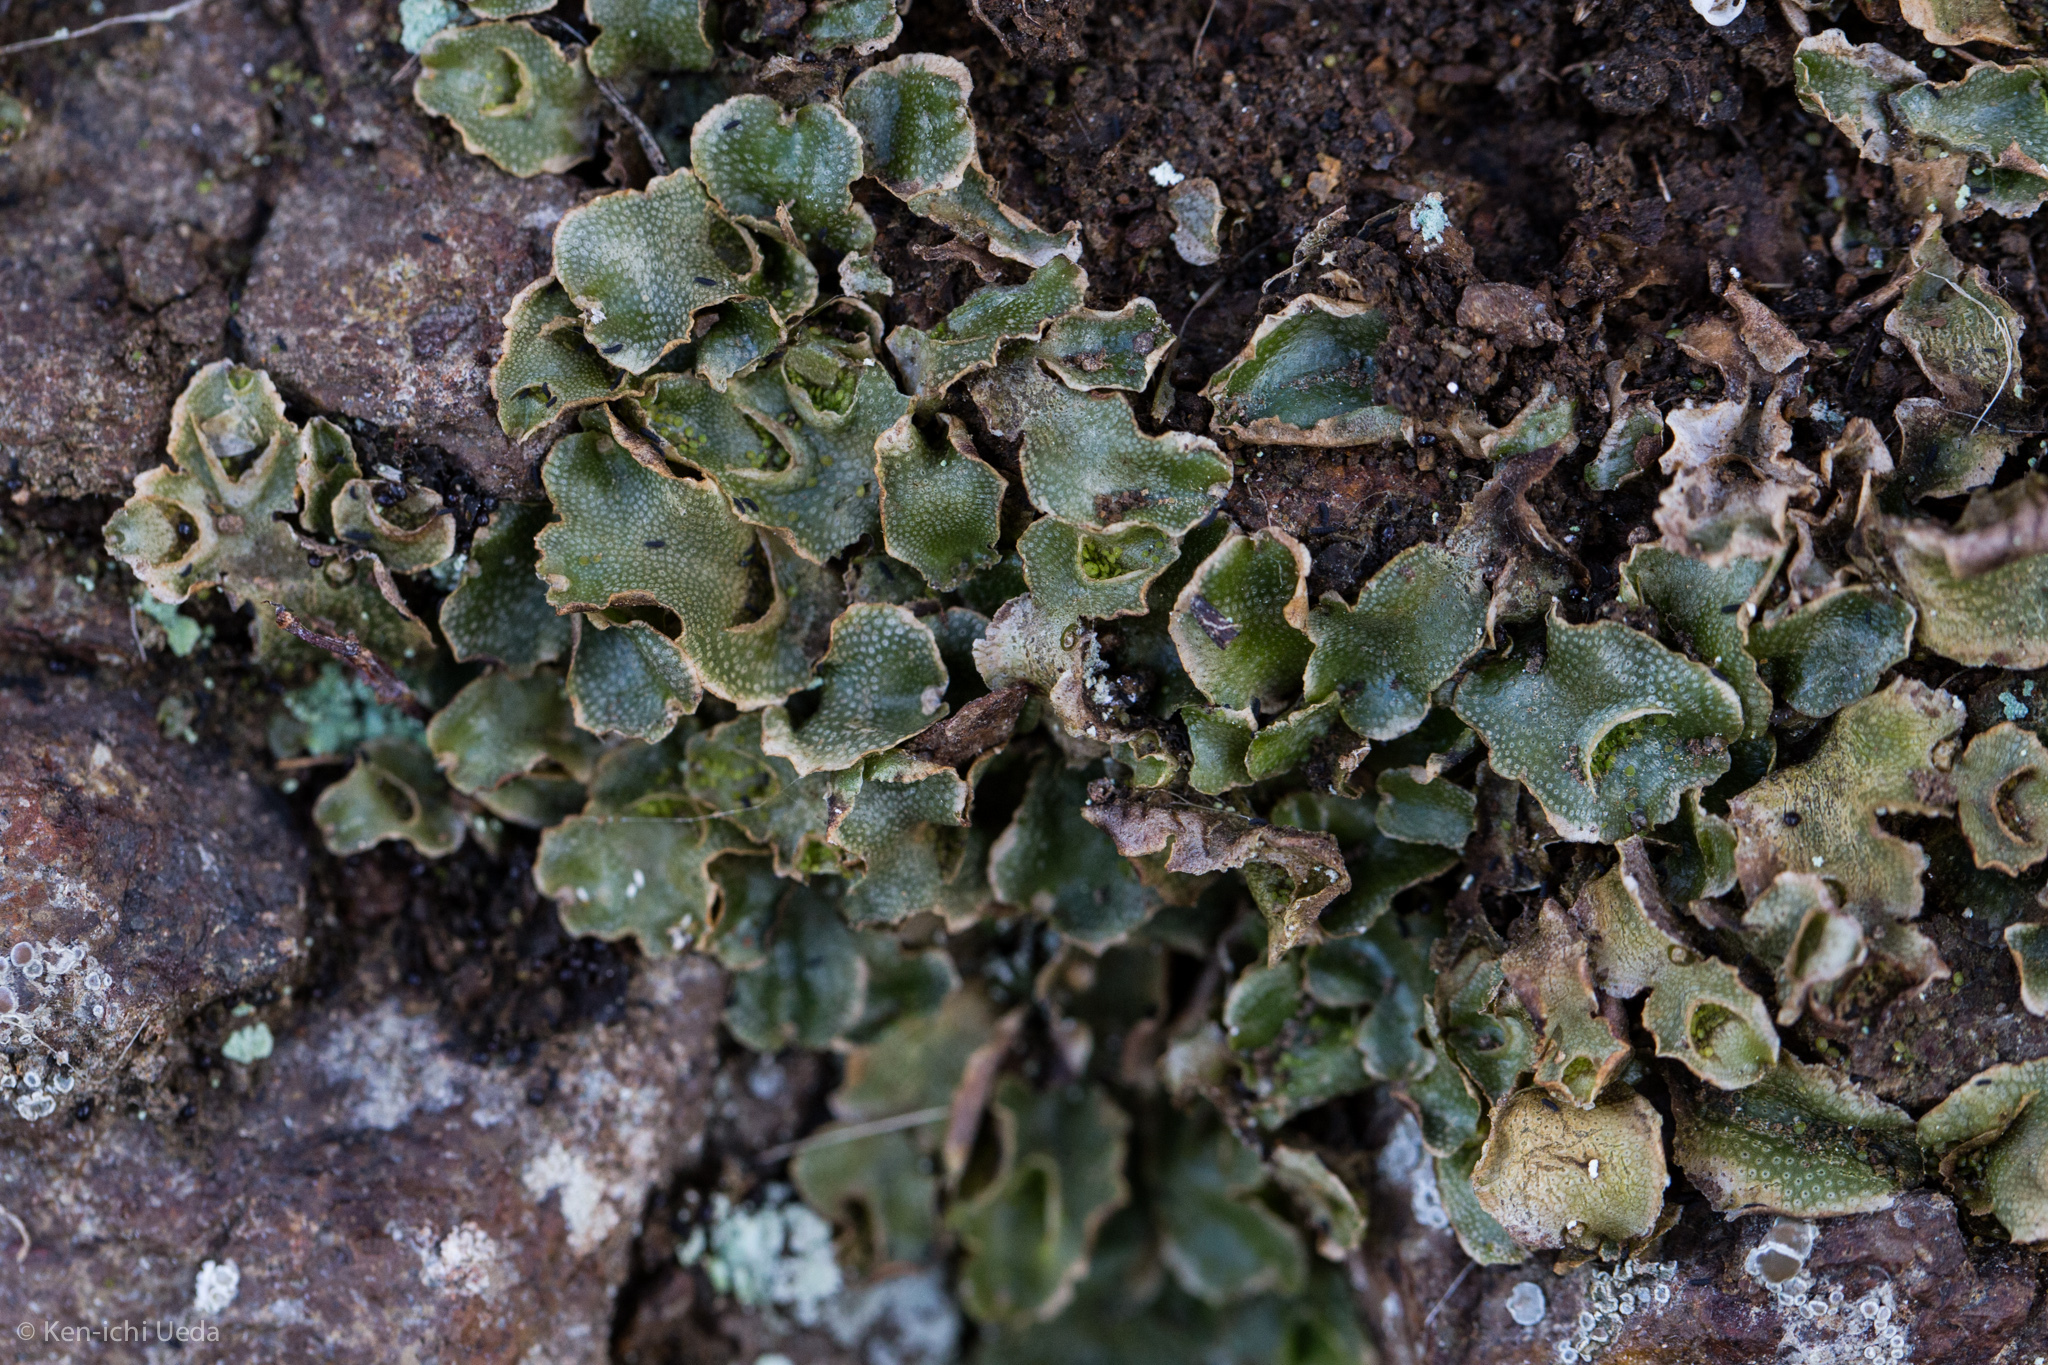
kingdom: Plantae
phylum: Marchantiophyta
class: Marchantiopsida
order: Lunulariales
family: Lunulariaceae
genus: Lunularia
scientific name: Lunularia cruciata
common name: Crescent-cup liverwort
